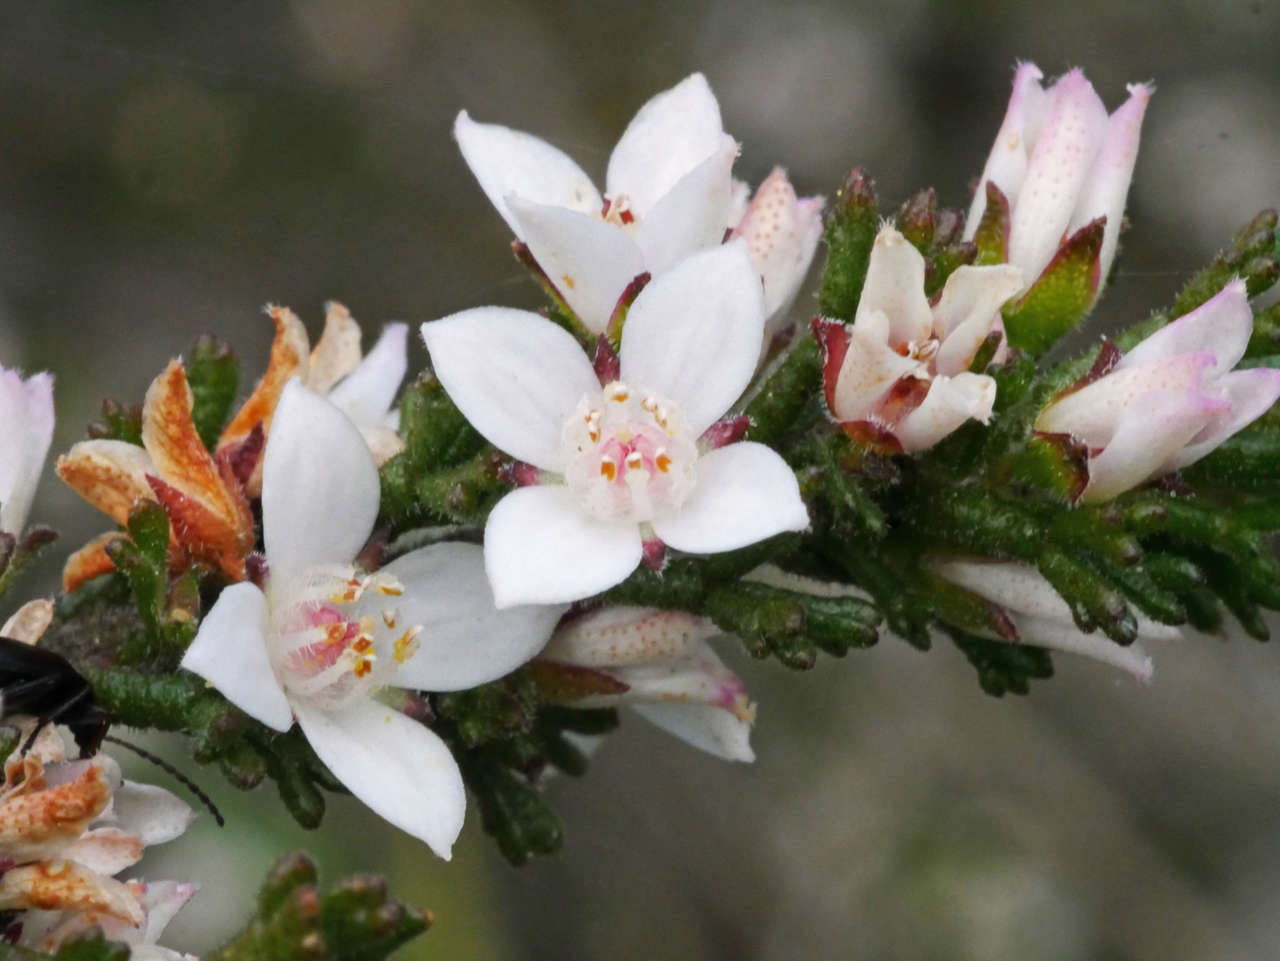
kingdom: Plantae
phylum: Tracheophyta
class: Magnoliopsida
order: Sapindales
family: Rutaceae
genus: Cyanothamnus
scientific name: Cyanothamnus anemonifolius
